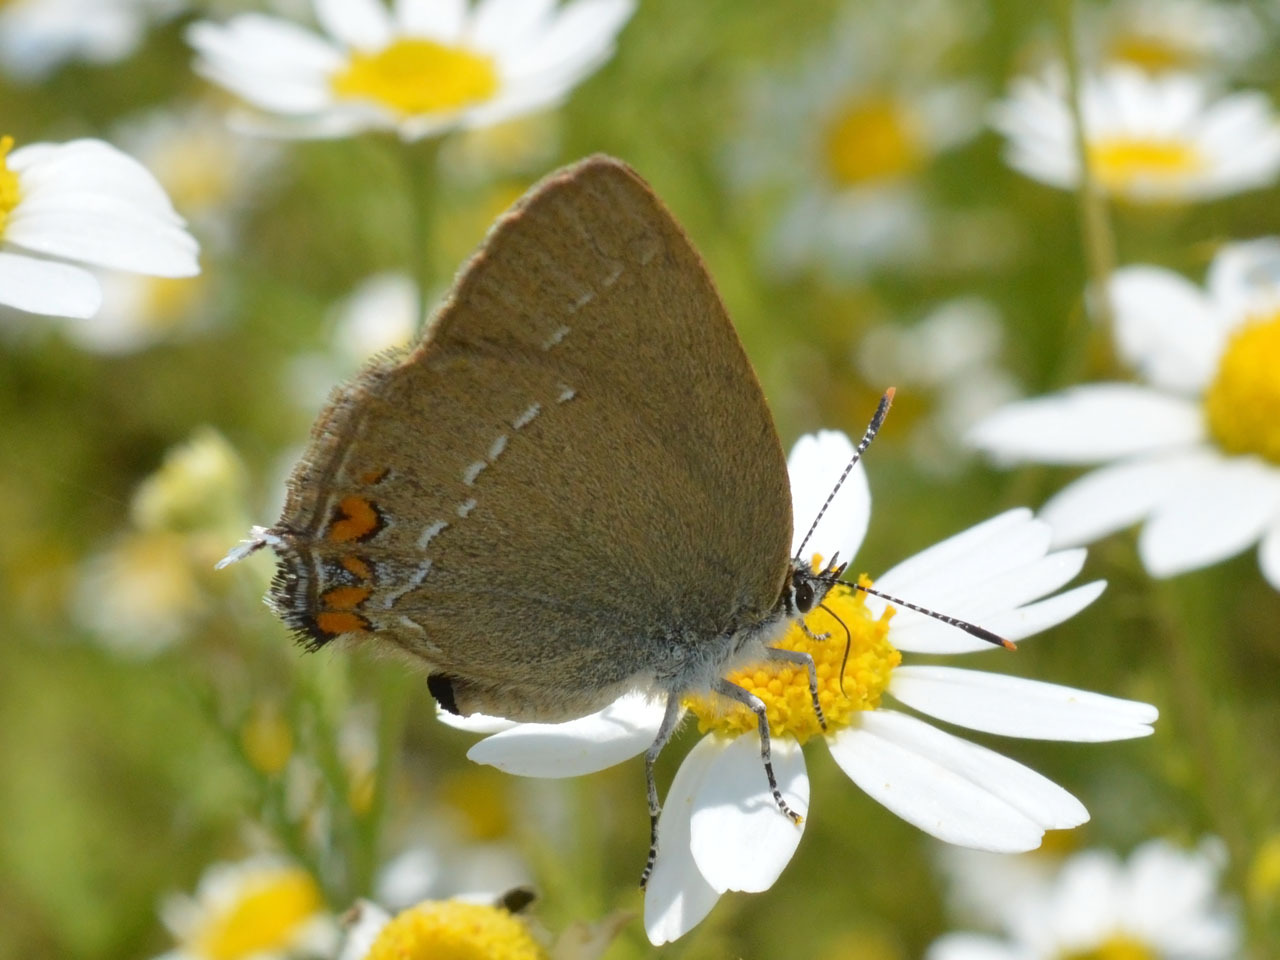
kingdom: Animalia
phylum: Arthropoda
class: Insecta
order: Lepidoptera
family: Lycaenidae
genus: Strymon
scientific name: Strymon acaciae
